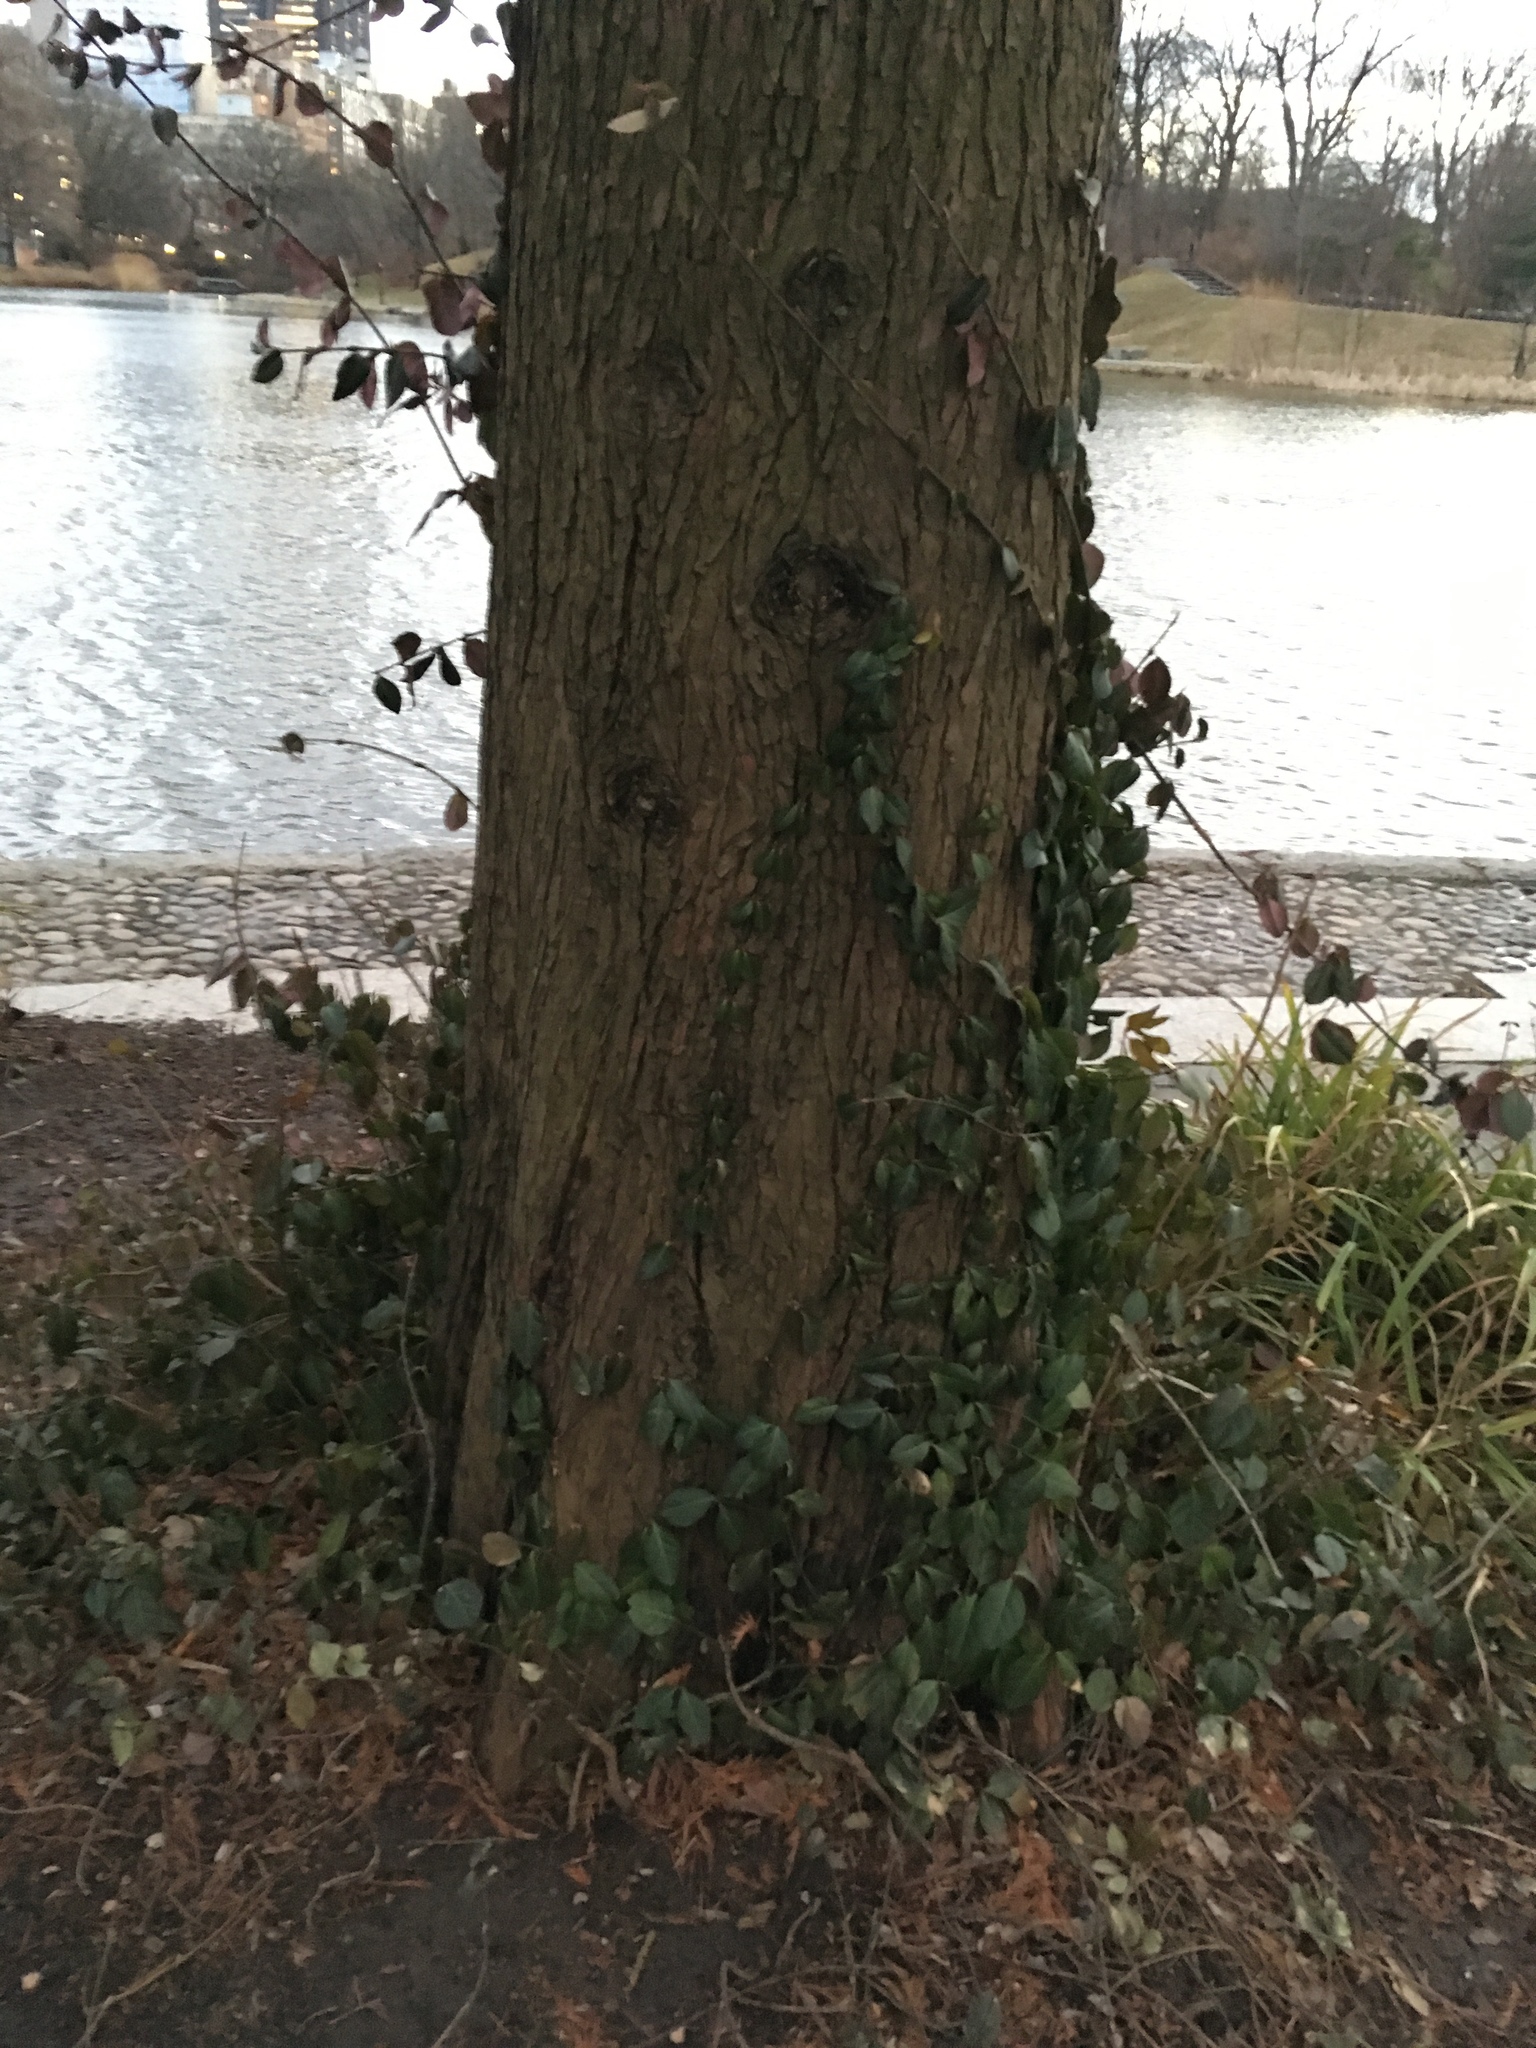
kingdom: Plantae
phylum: Tracheophyta
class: Magnoliopsida
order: Celastrales
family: Celastraceae
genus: Euonymus
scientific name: Euonymus fortunei
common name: Climbing euonymus
